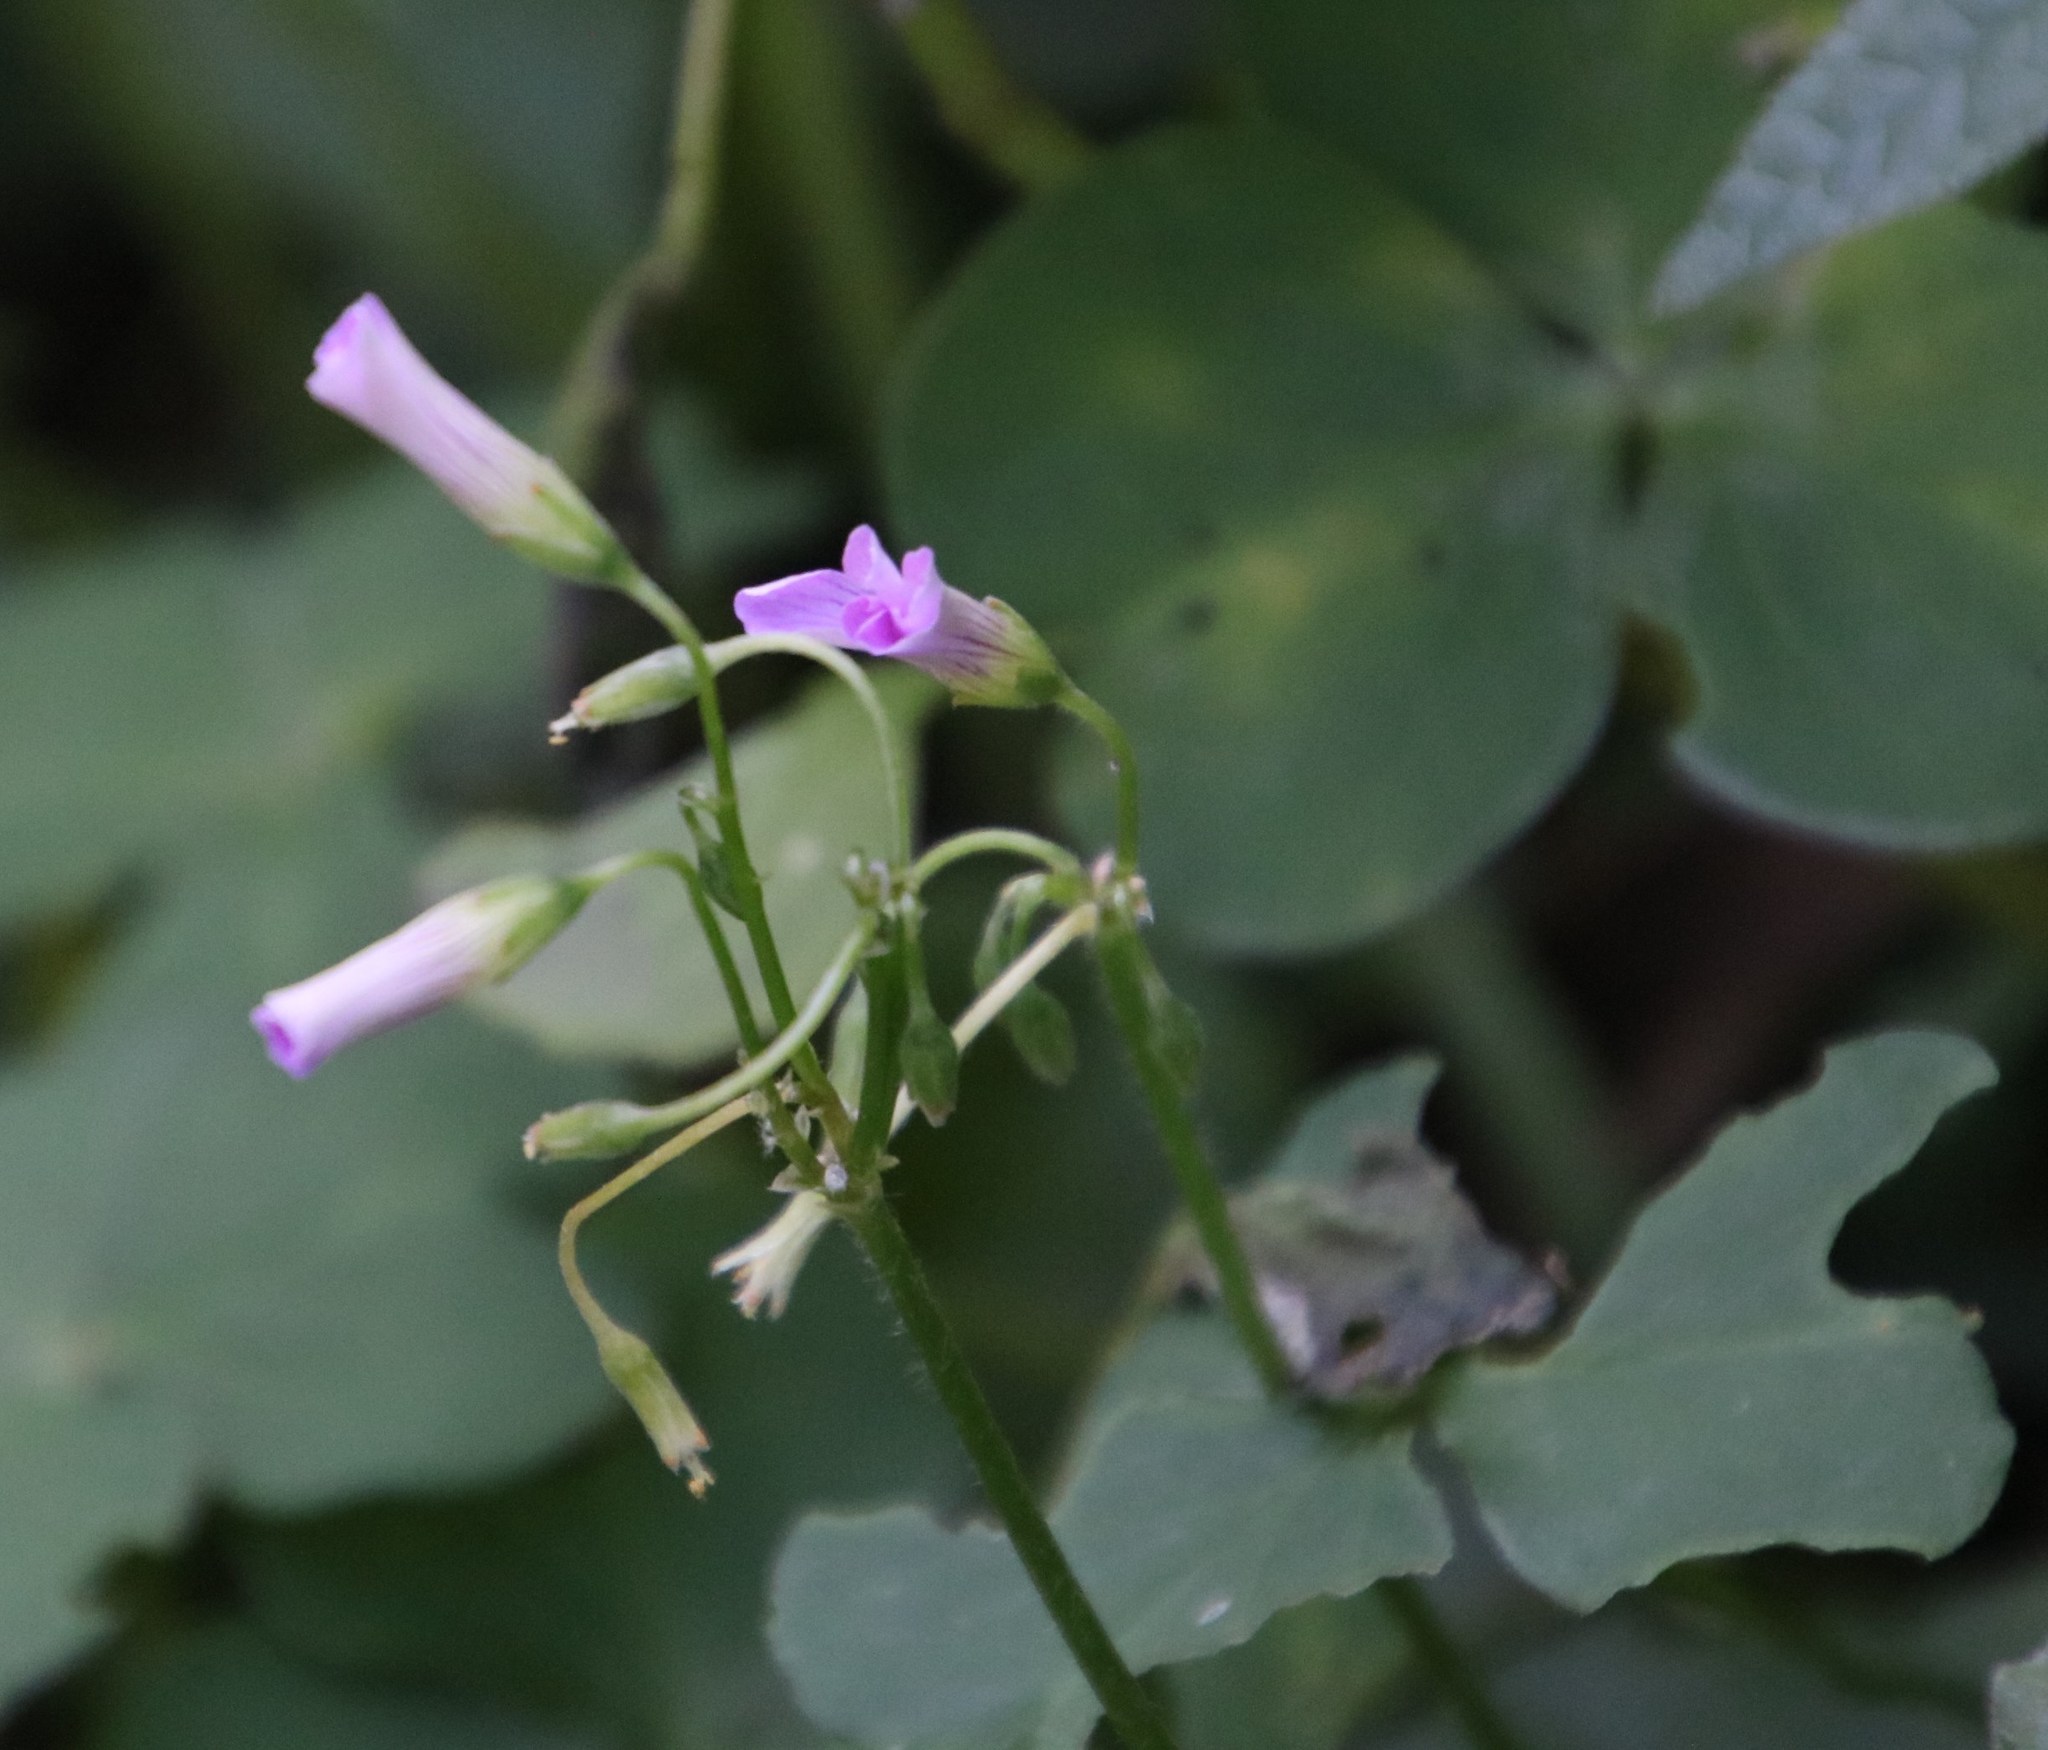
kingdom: Plantae
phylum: Tracheophyta
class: Magnoliopsida
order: Oxalidales
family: Oxalidaceae
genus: Oxalis
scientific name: Oxalis debilis
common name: Large-flowered pink-sorrel
